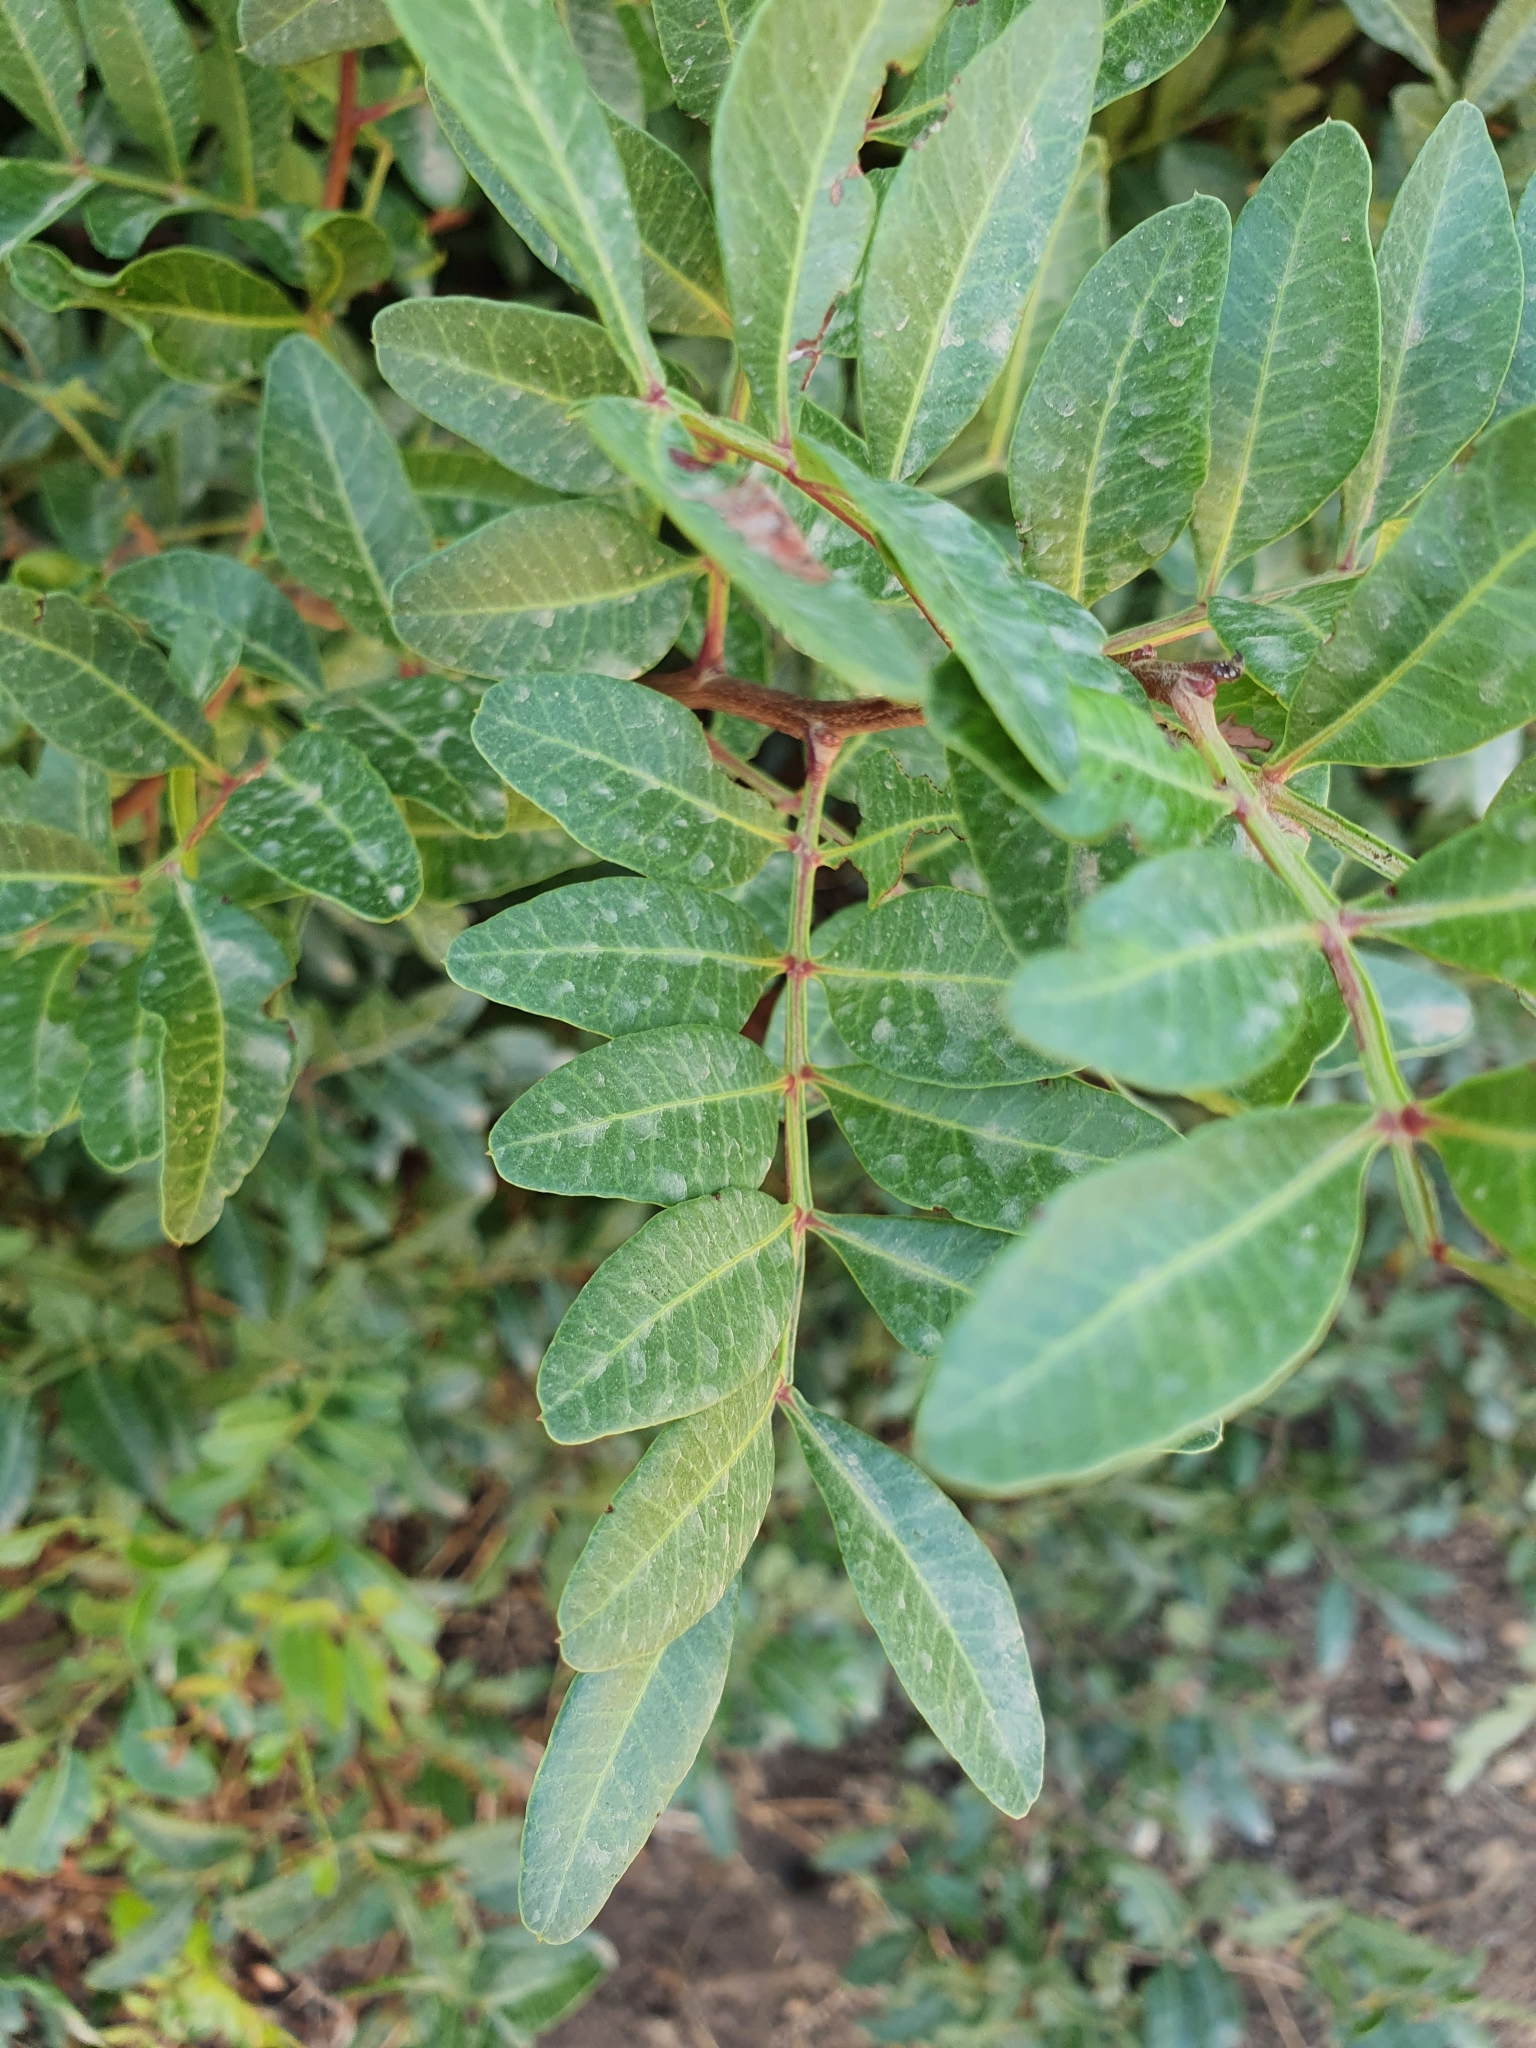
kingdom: Plantae
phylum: Tracheophyta
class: Magnoliopsida
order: Sapindales
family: Anacardiaceae
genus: Pistacia
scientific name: Pistacia lentiscus
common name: Lentisk
